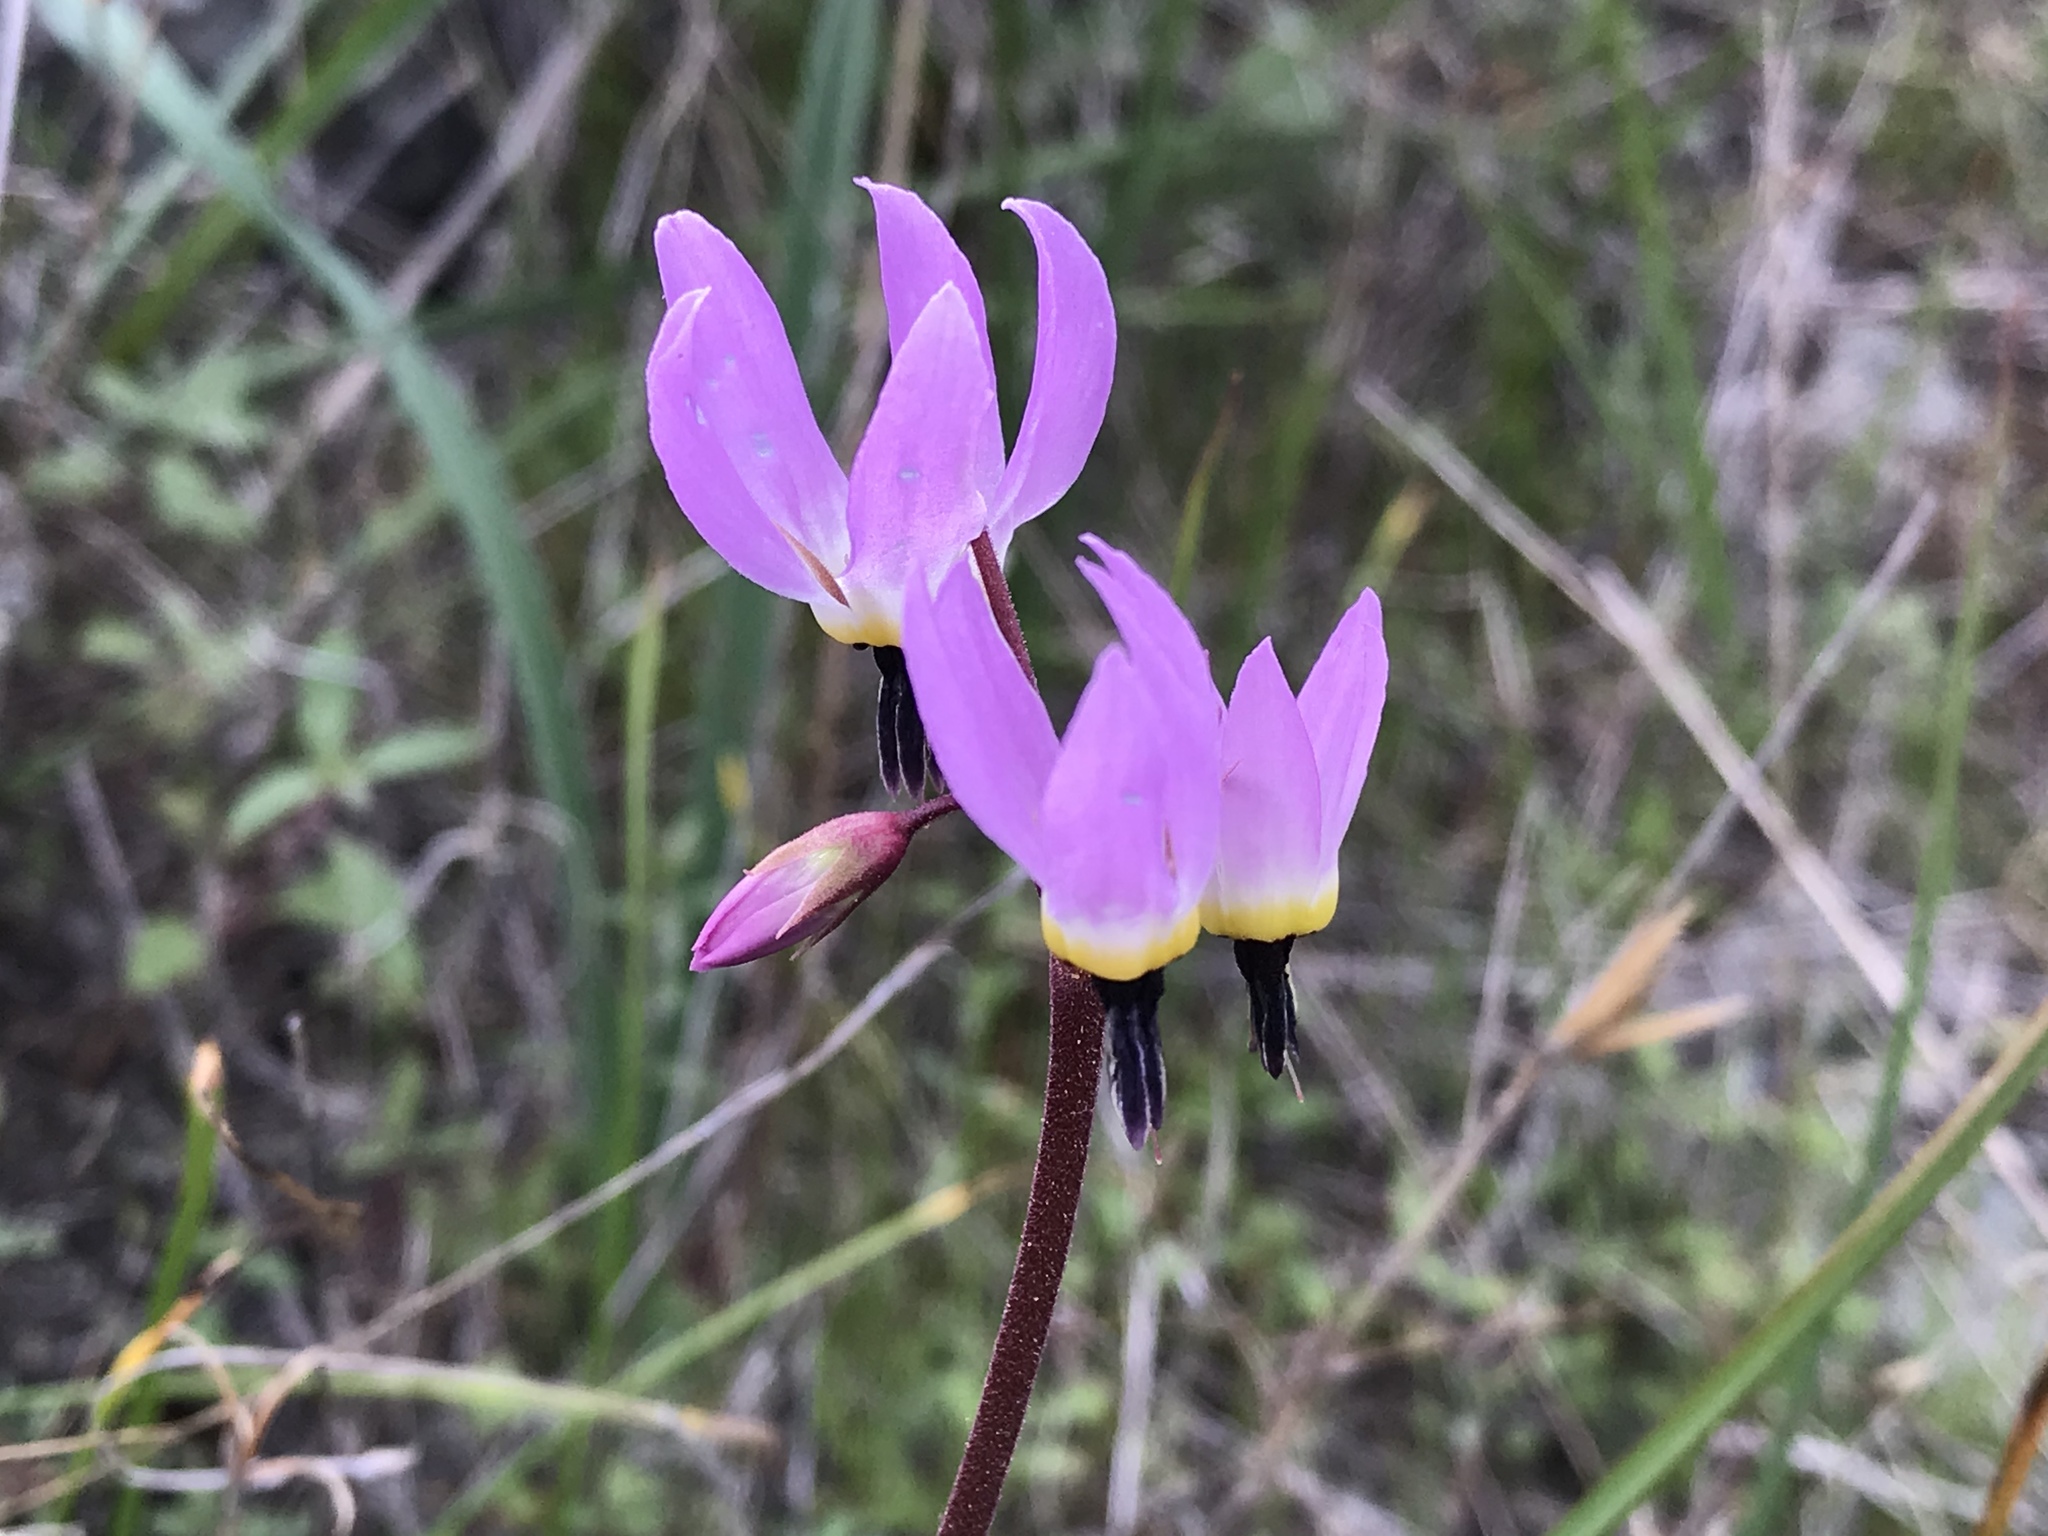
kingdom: Plantae
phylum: Tracheophyta
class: Magnoliopsida
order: Ericales
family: Primulaceae
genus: Dodecatheon
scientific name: Dodecatheon hendersonii
